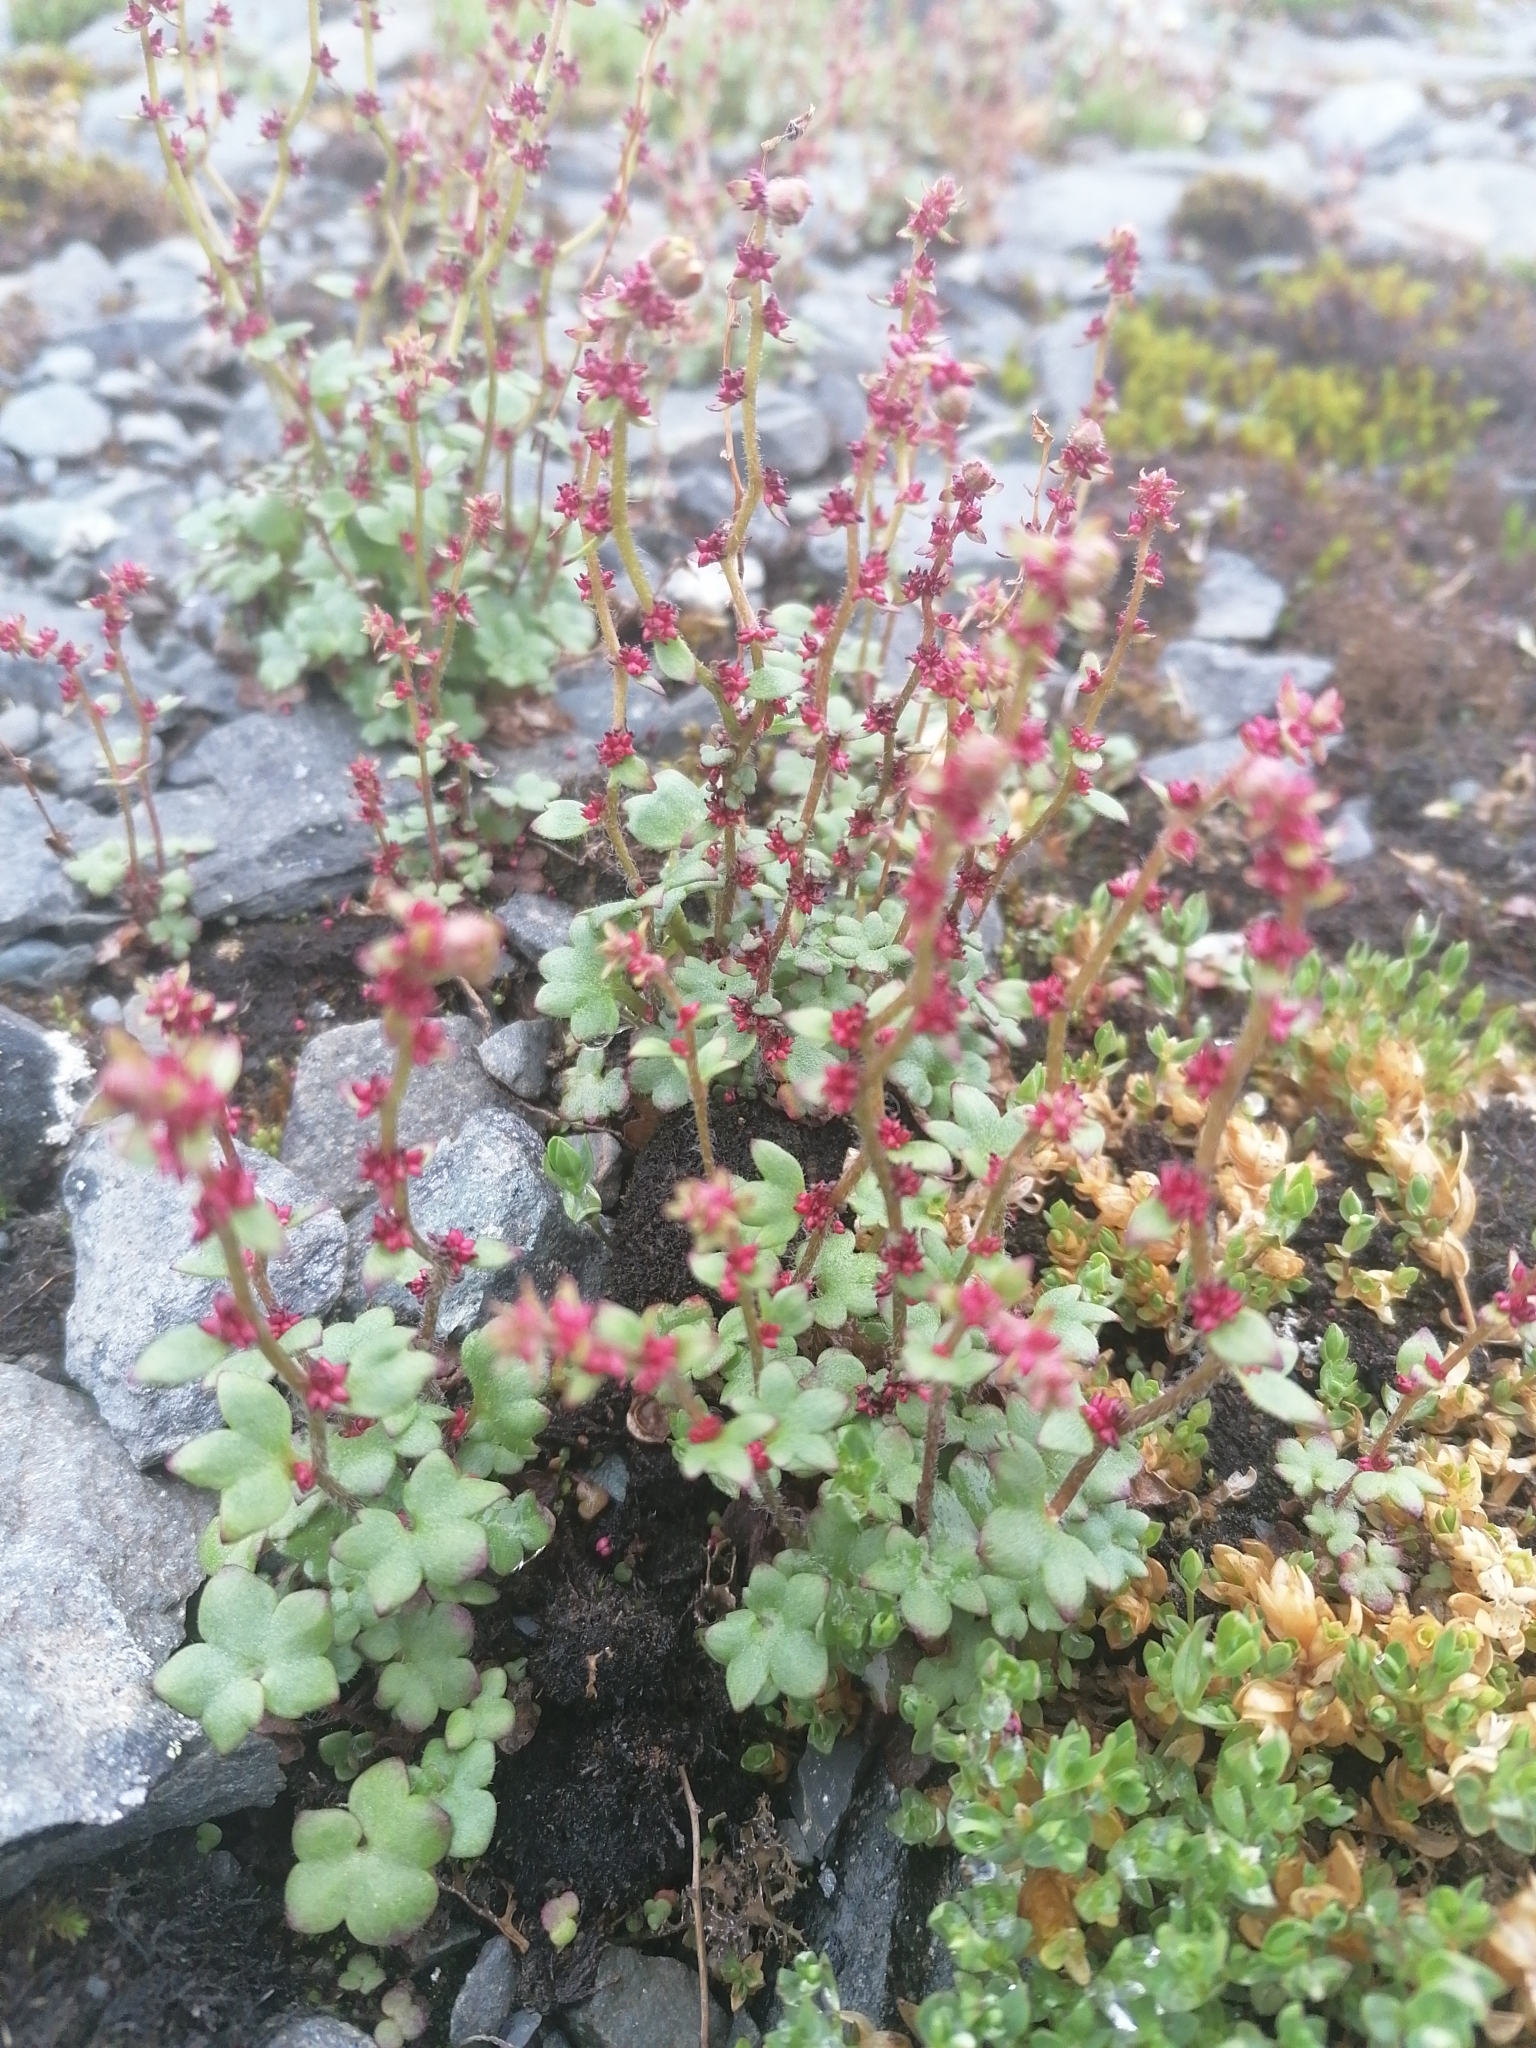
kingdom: Plantae
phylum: Tracheophyta
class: Magnoliopsida
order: Saxifragales
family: Saxifragaceae
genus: Saxifraga
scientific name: Saxifraga cernua
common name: Drooping saxifrage
